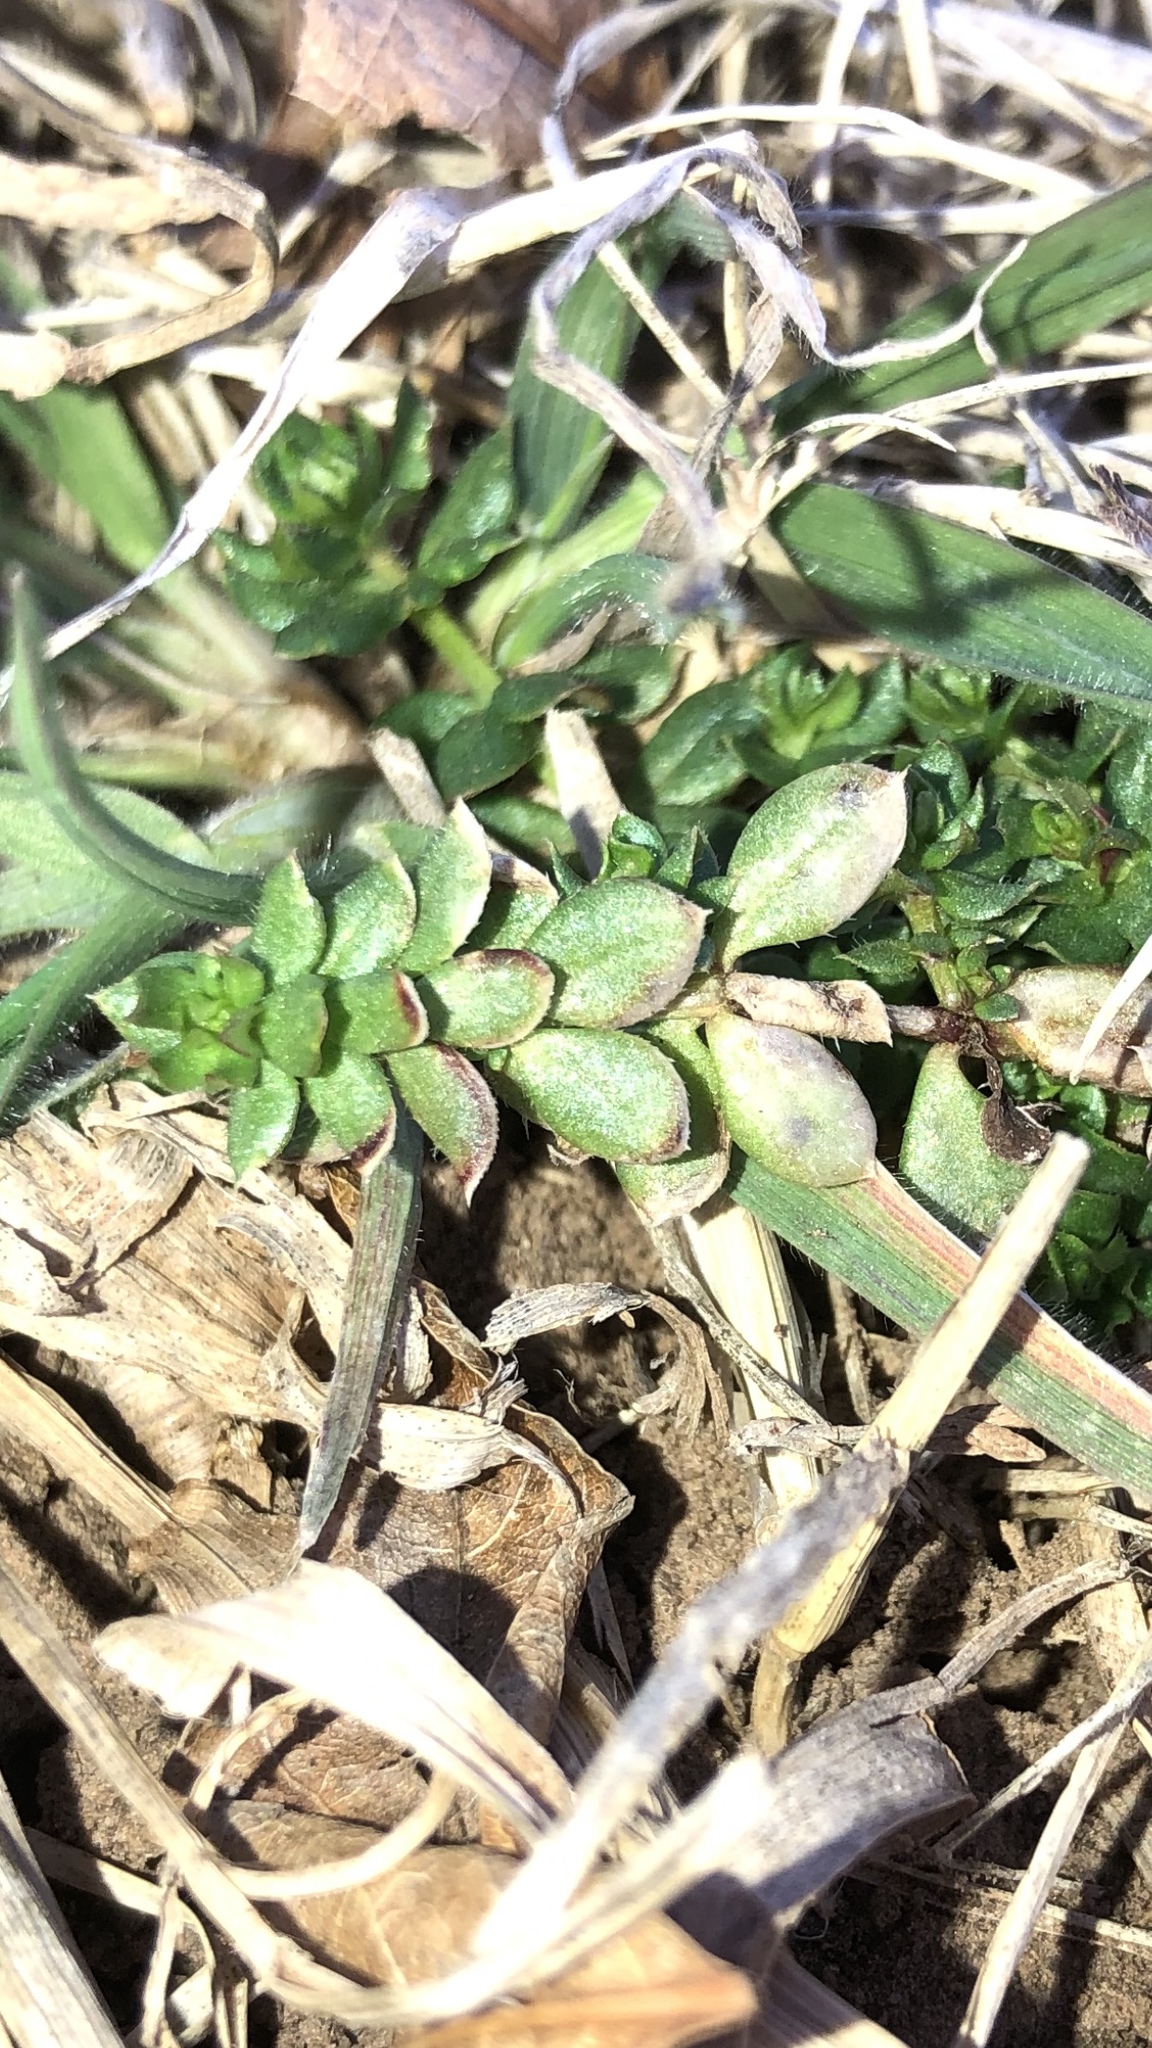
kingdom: Plantae
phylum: Tracheophyta
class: Magnoliopsida
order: Gentianales
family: Rubiaceae
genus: Sherardia
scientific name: Sherardia arvensis
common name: Field madder
